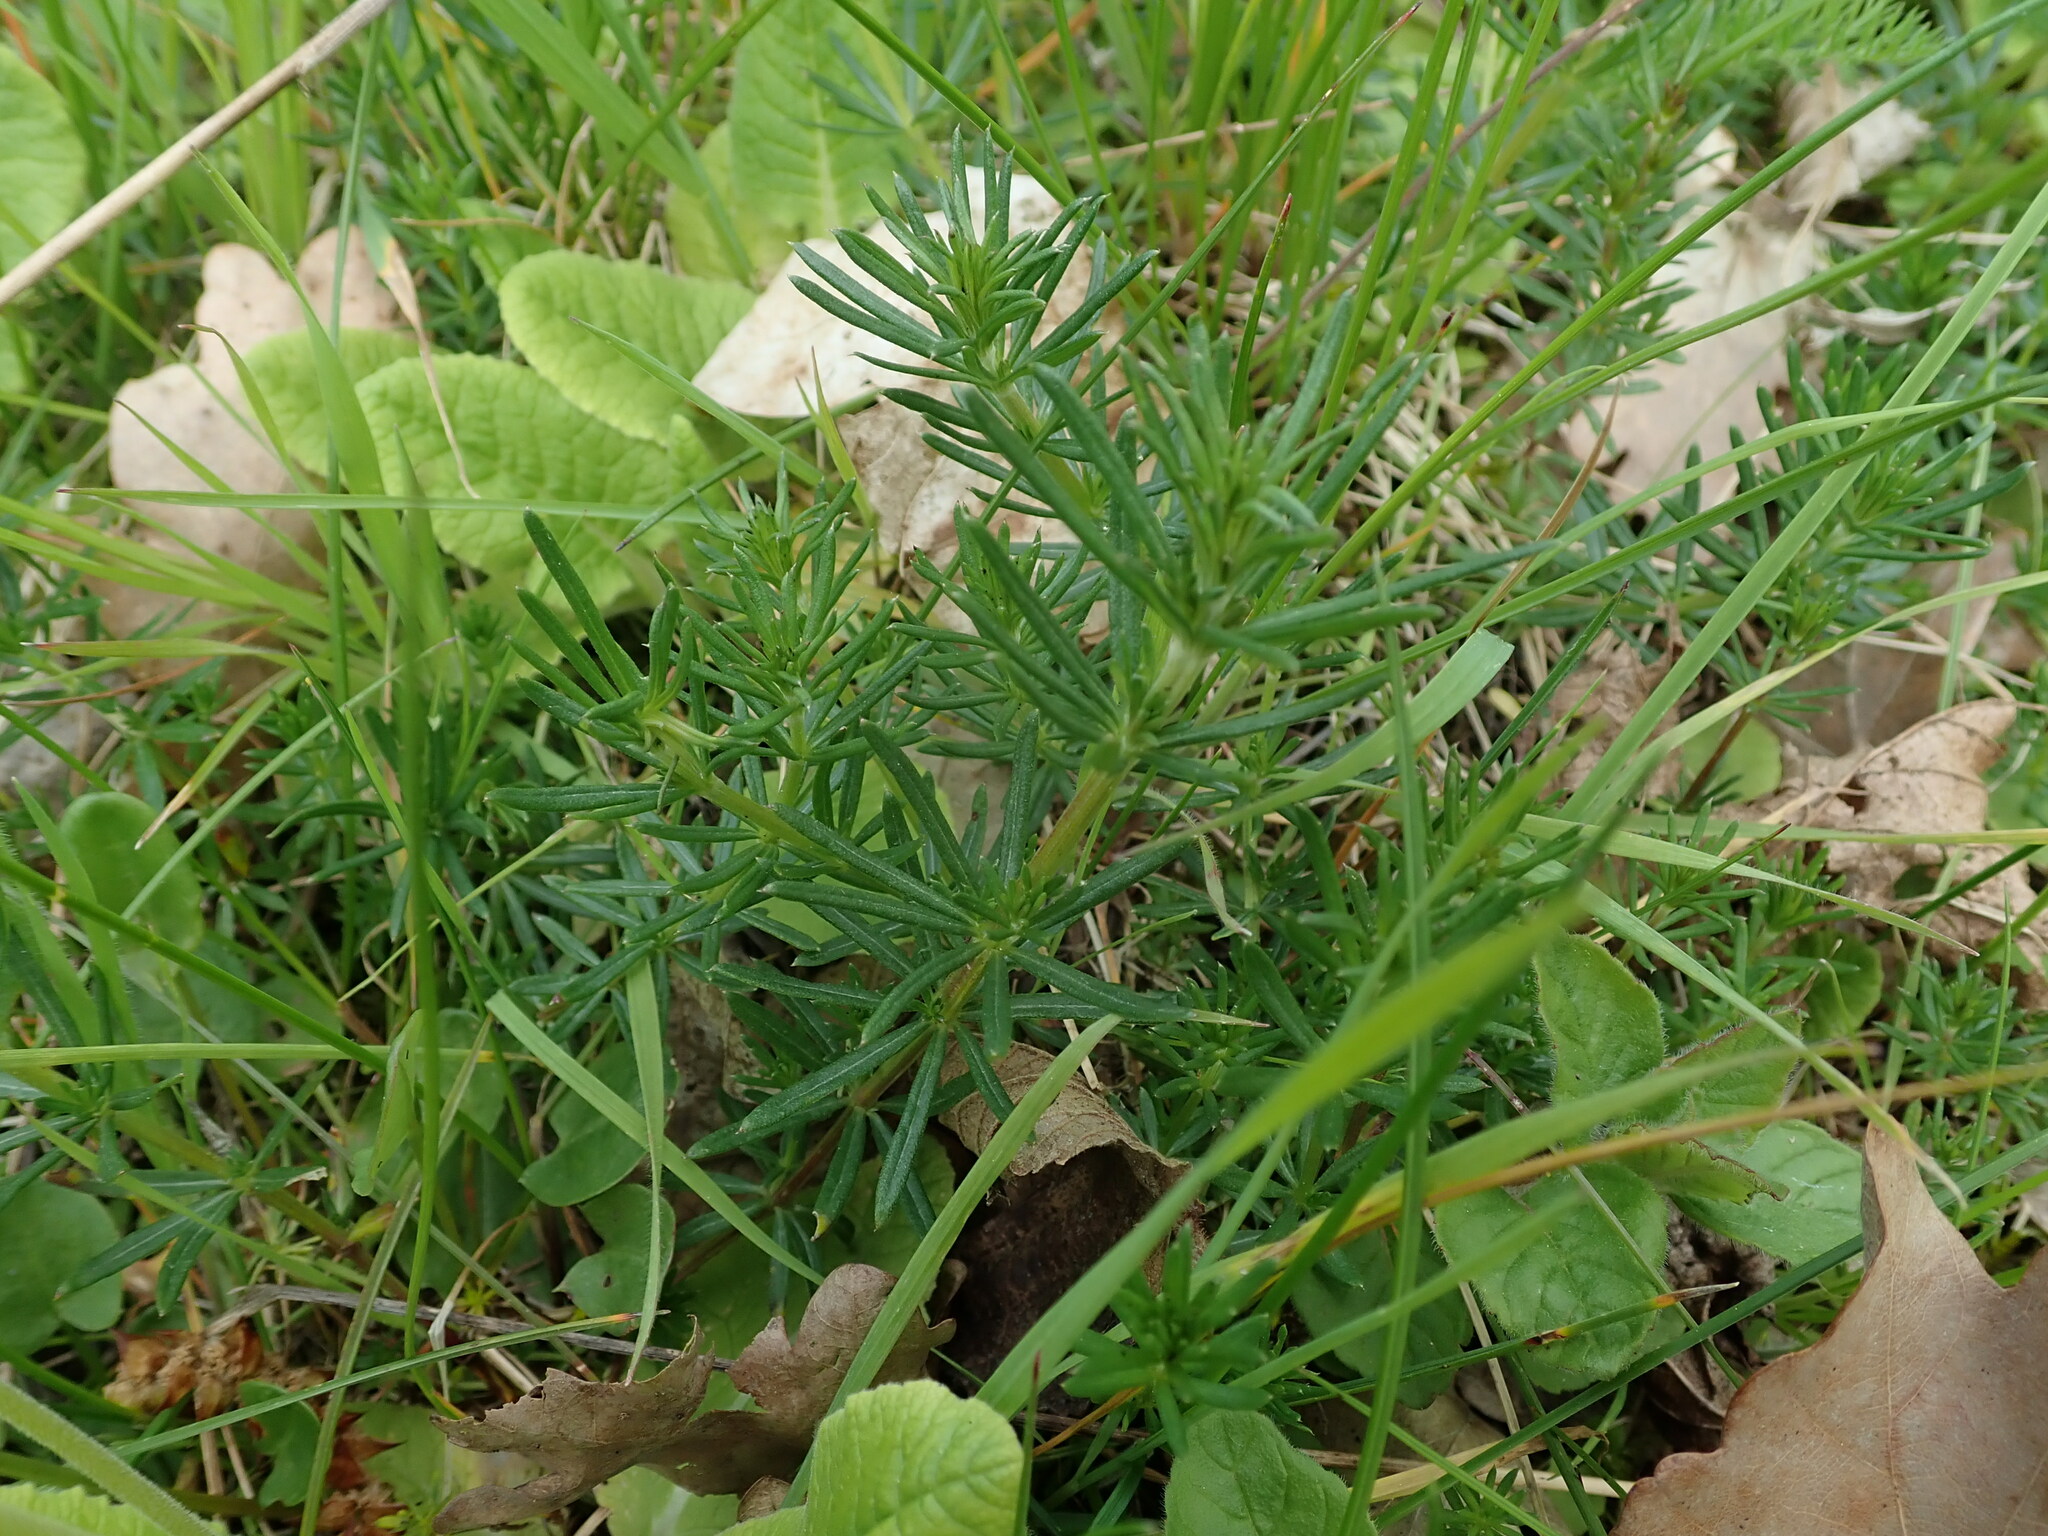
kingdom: Plantae
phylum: Tracheophyta
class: Magnoliopsida
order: Gentianales
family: Rubiaceae
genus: Galium
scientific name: Galium verum
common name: Lady's bedstraw
